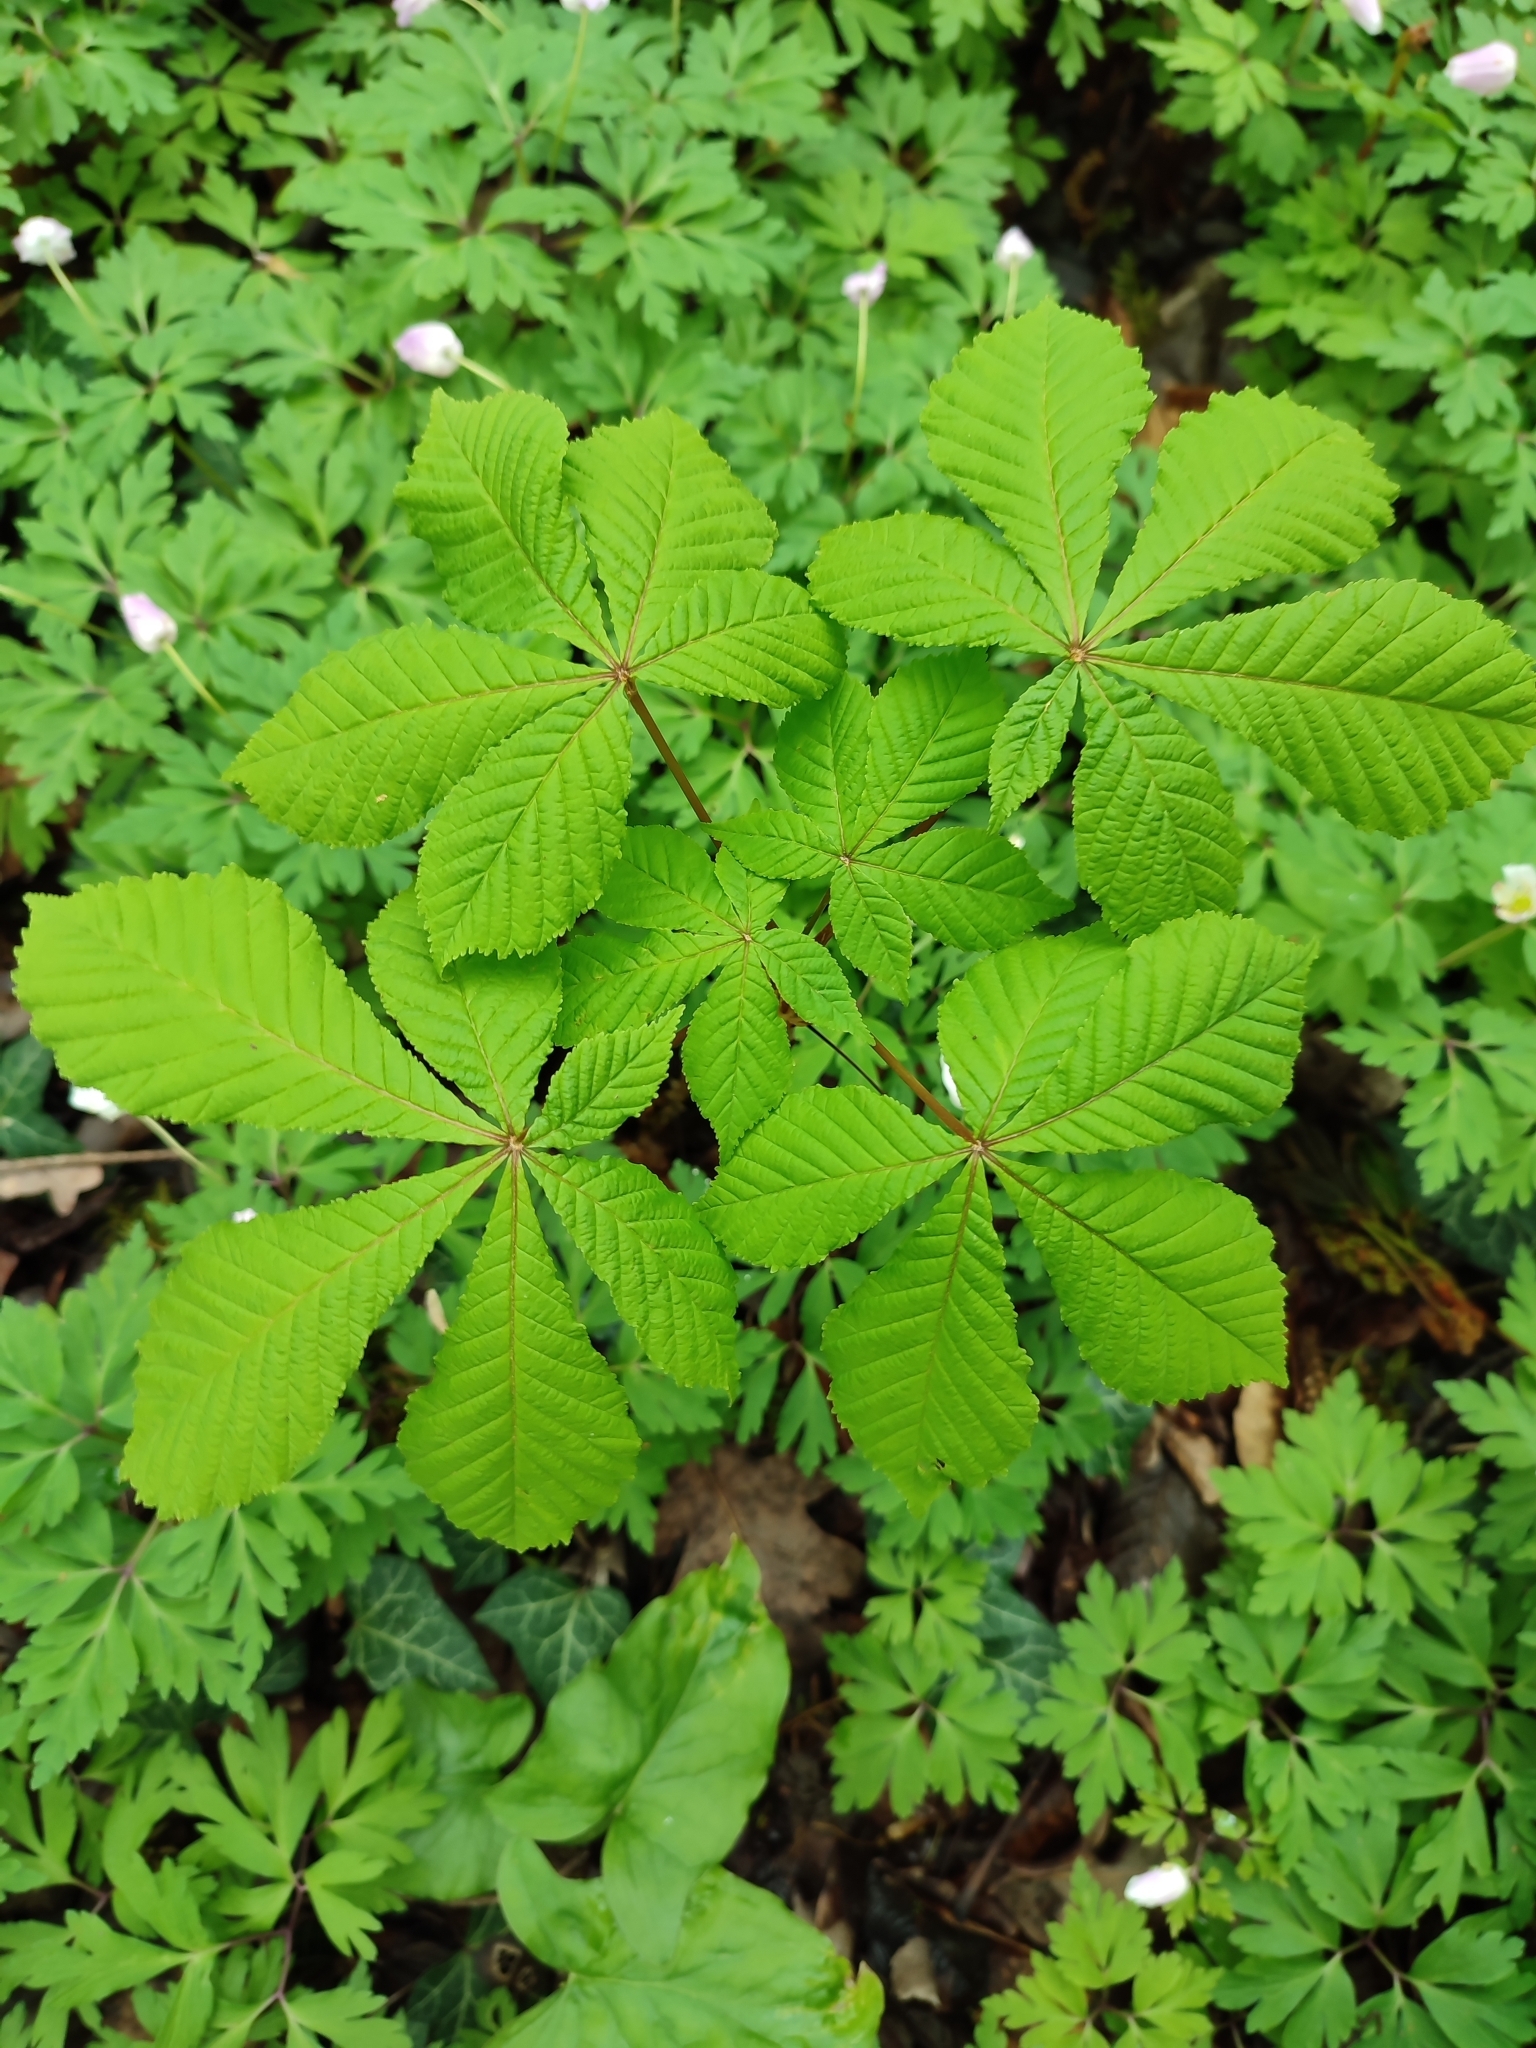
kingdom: Plantae
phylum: Tracheophyta
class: Magnoliopsida
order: Sapindales
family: Sapindaceae
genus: Aesculus
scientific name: Aesculus hippocastanum
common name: Horse-chestnut
